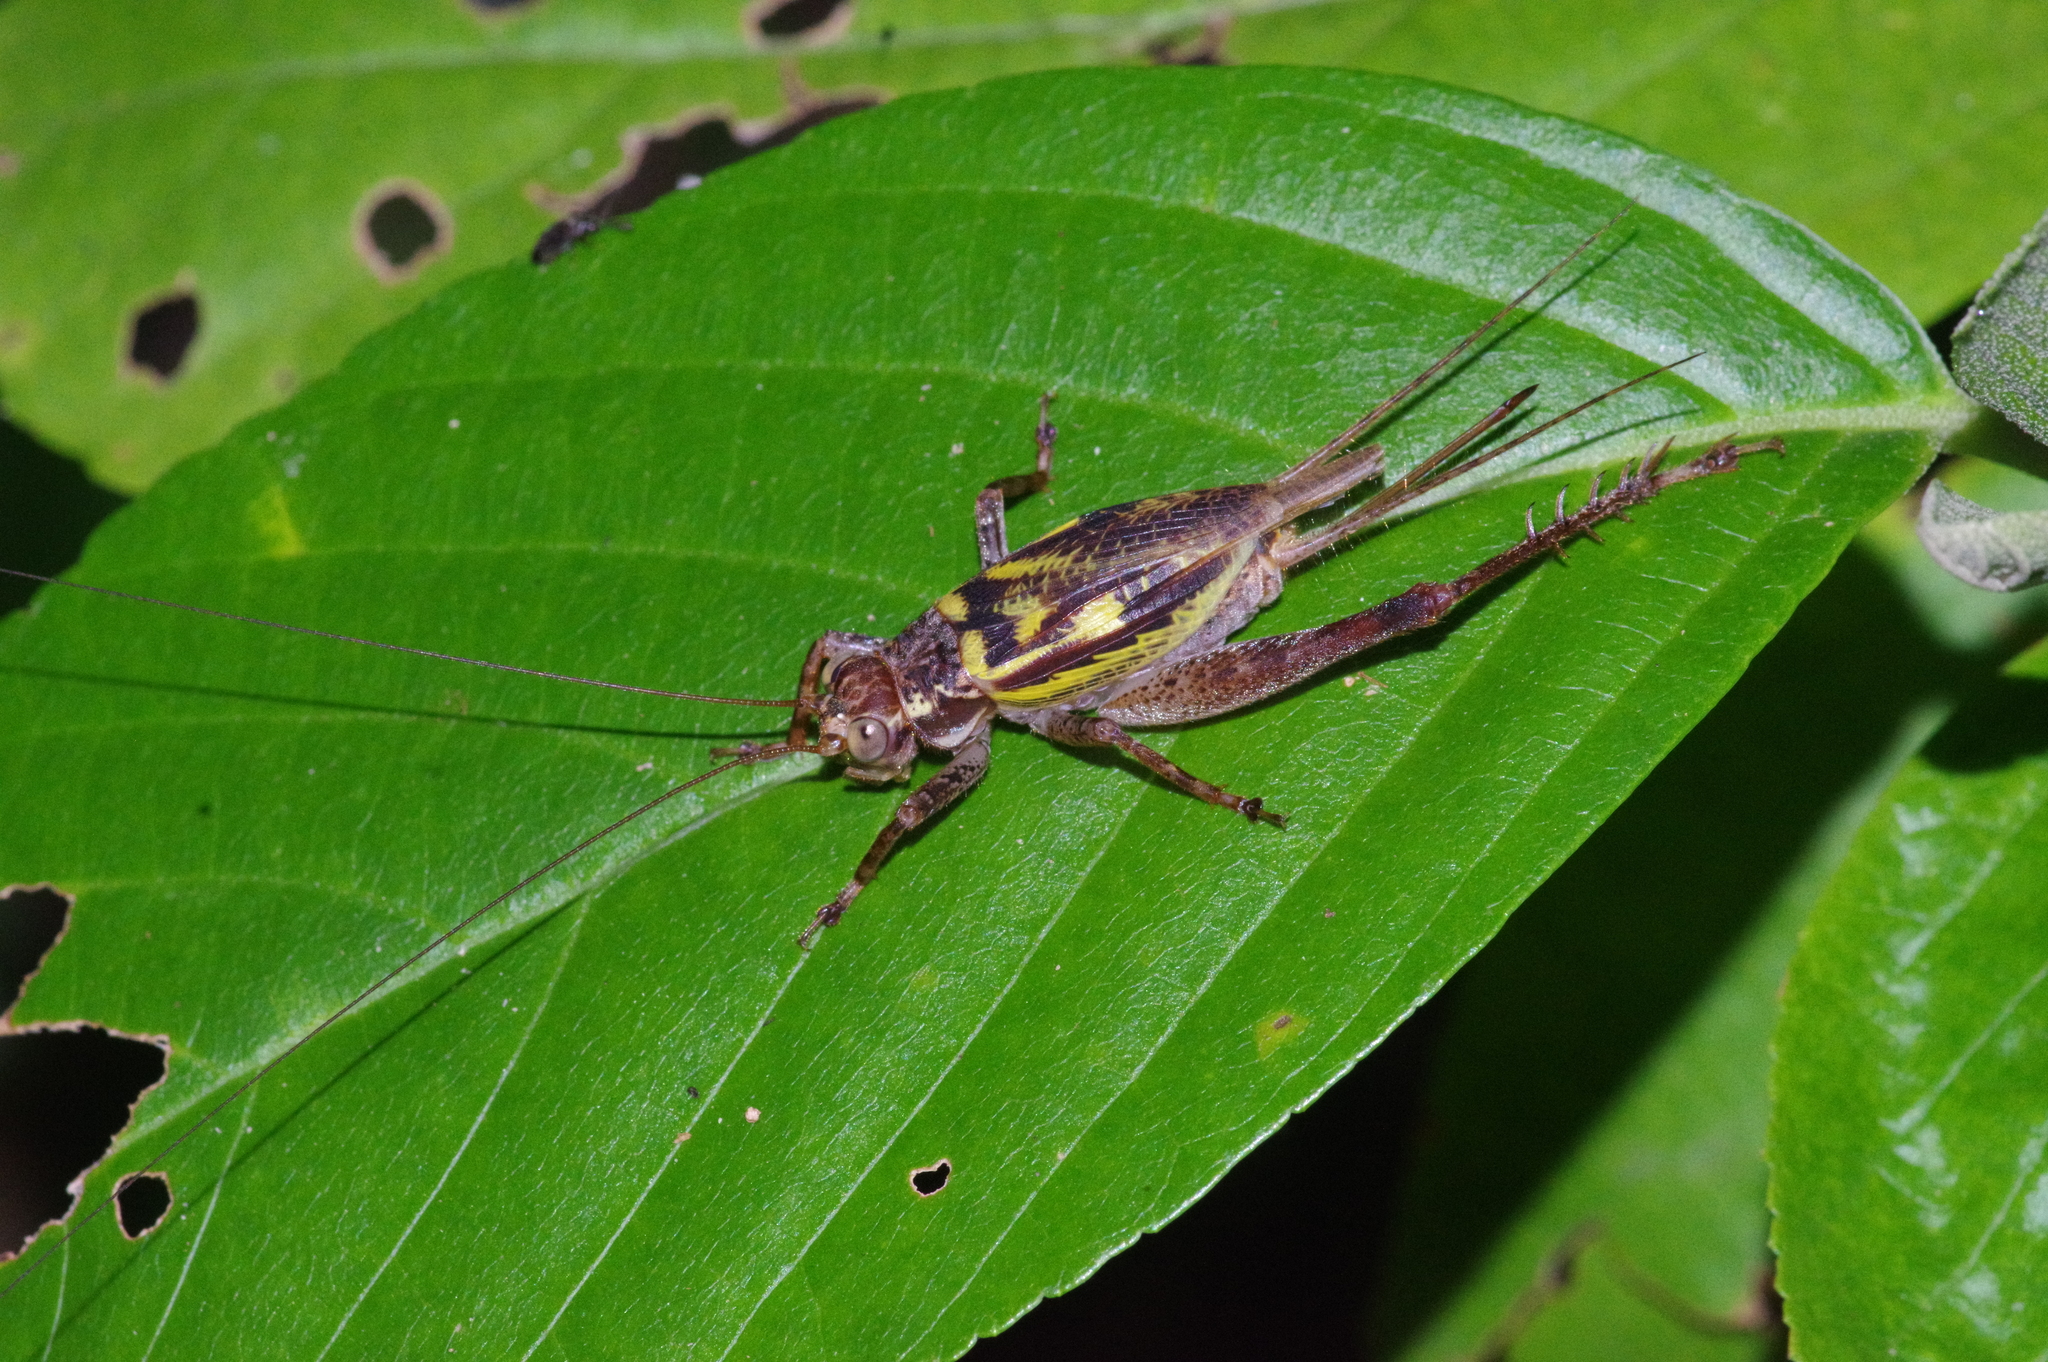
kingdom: Animalia
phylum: Arthropoda
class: Insecta
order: Orthoptera
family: Gryllidae
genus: Cardiodactylus
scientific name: Cardiodactylus guttulus
